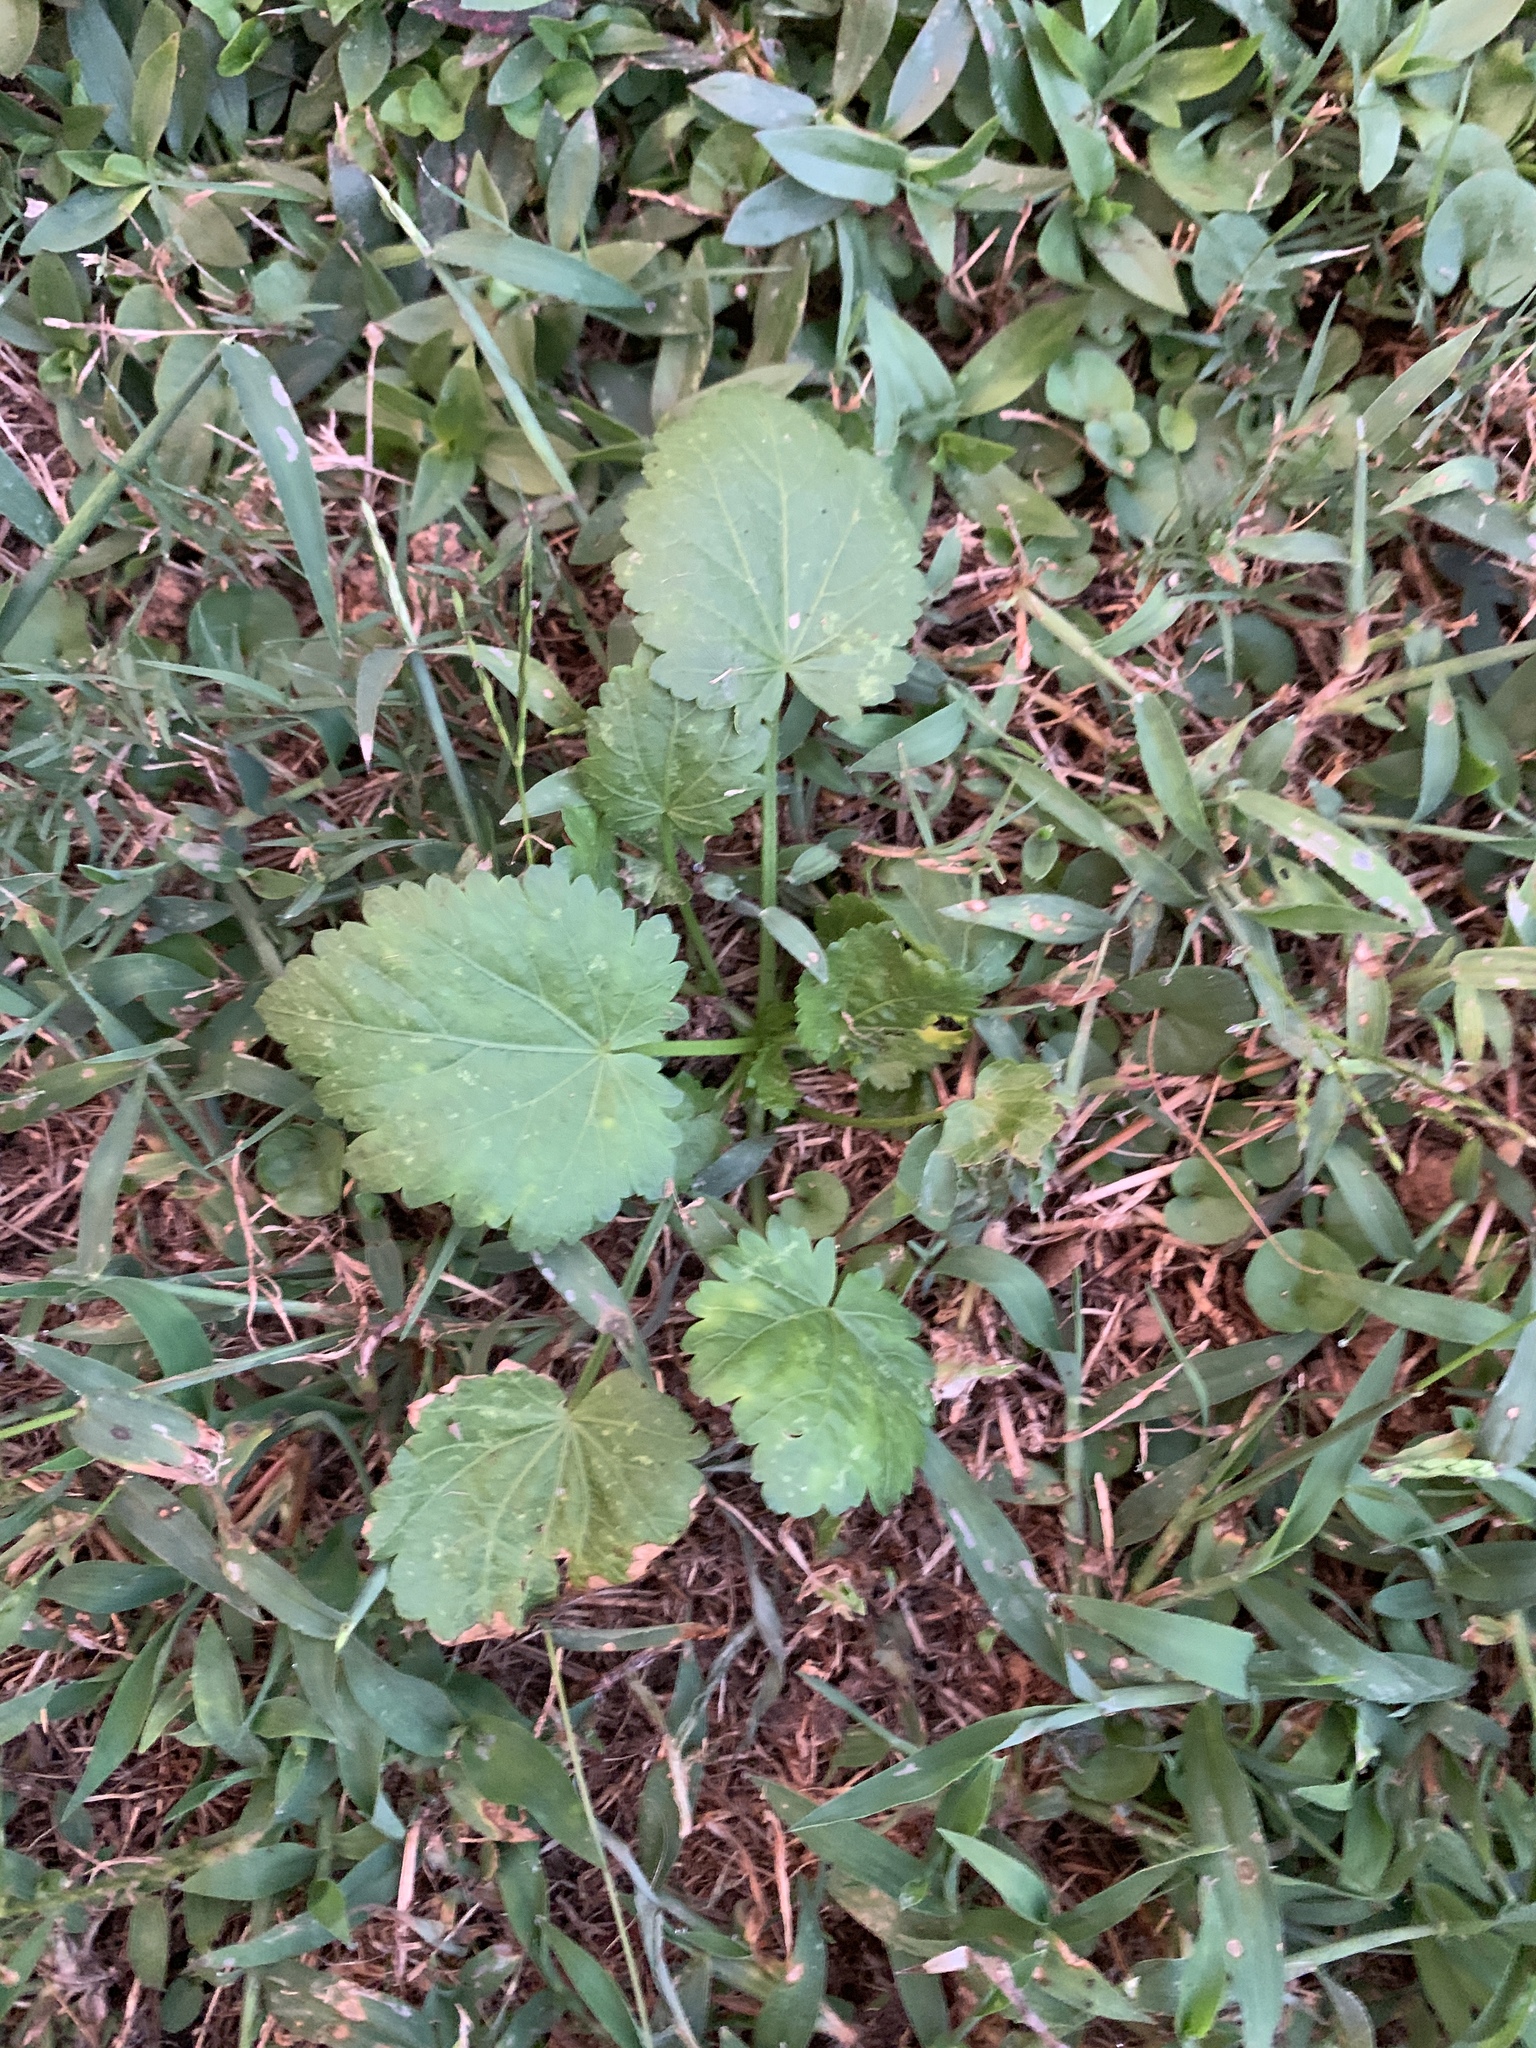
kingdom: Plantae
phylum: Tracheophyta
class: Magnoliopsida
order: Malvales
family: Malvaceae
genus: Modiola
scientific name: Modiola caroliniana
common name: Carolina bristlemallow
